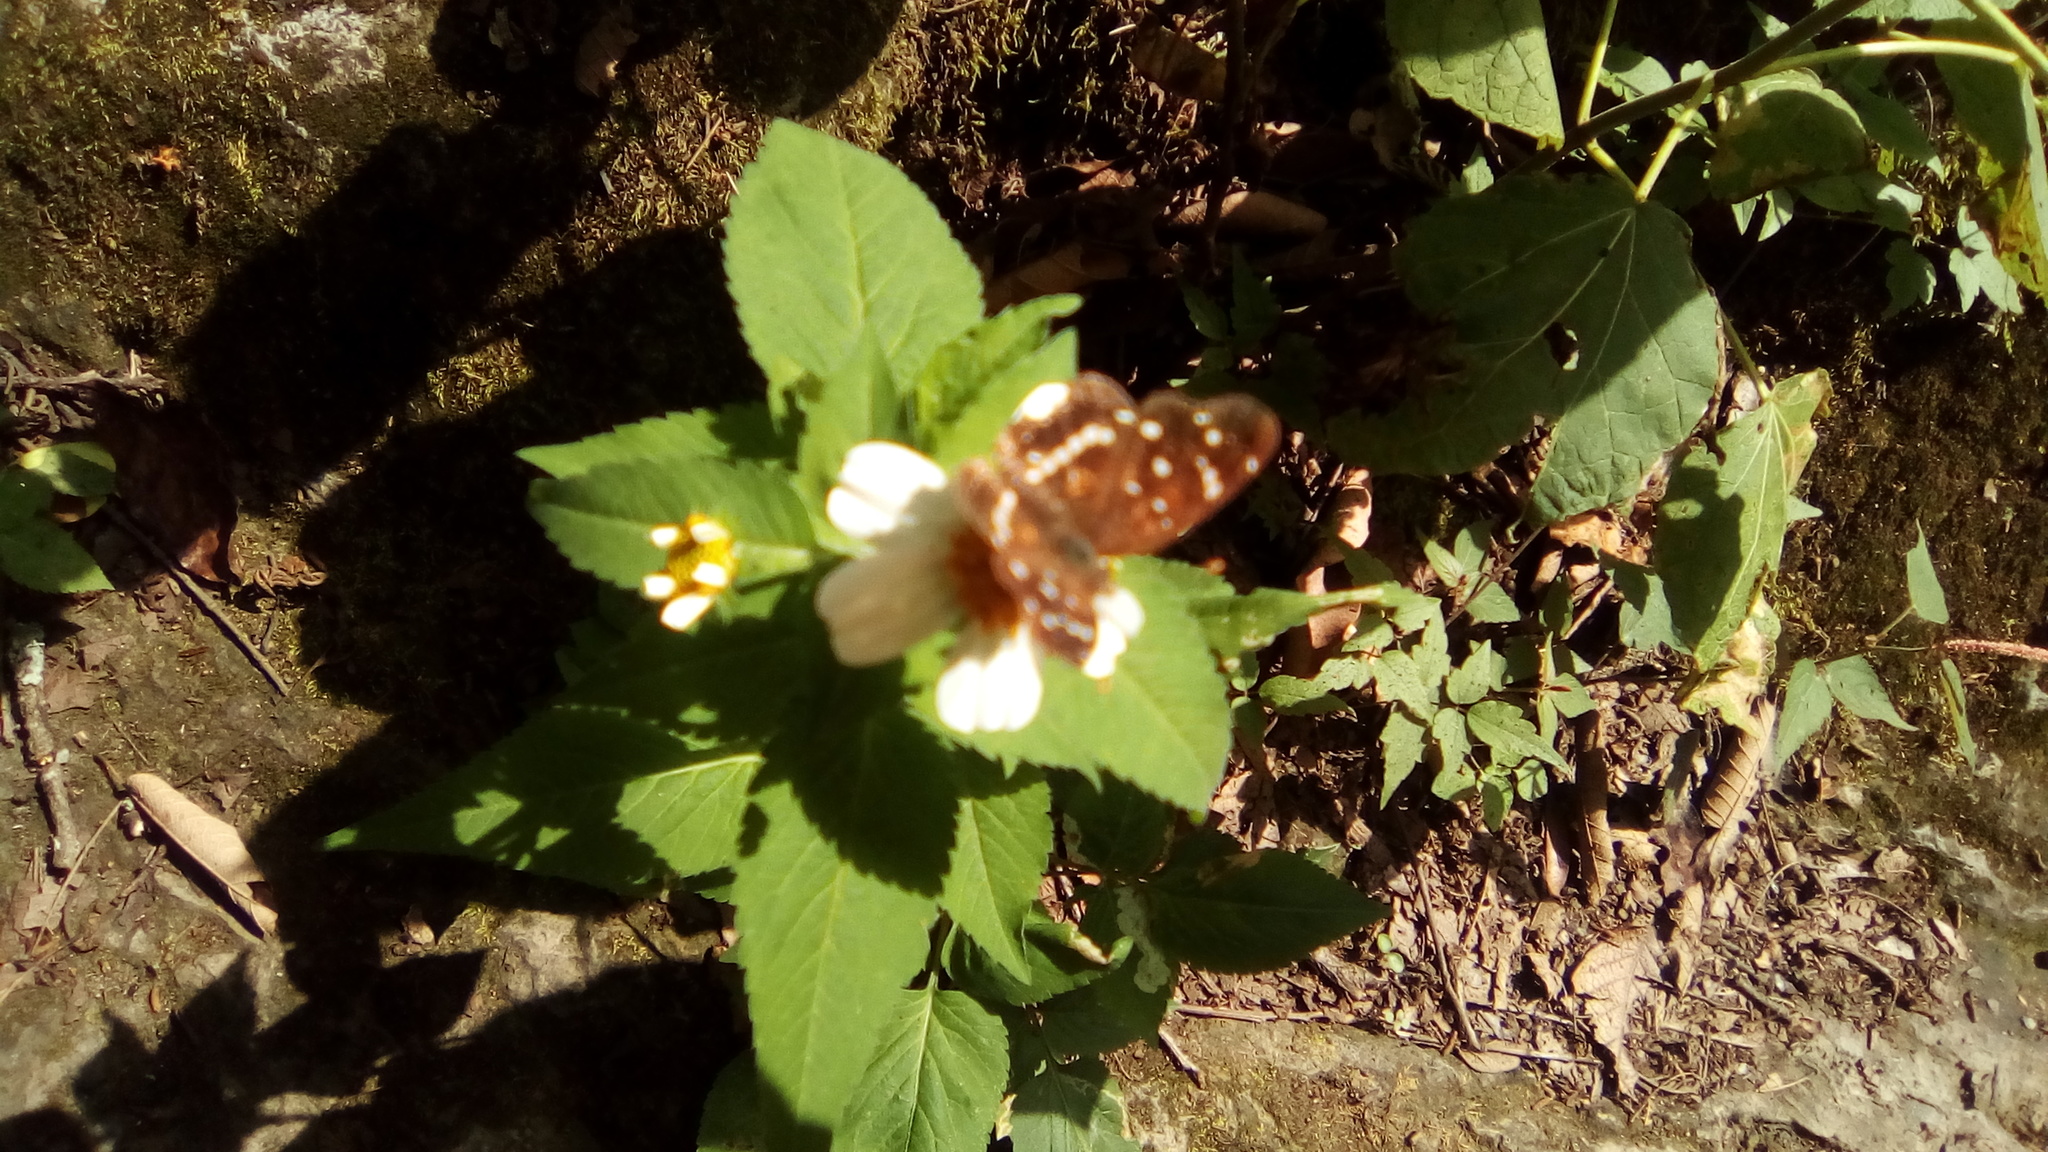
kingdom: Animalia
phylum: Arthropoda
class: Insecta
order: Lepidoptera
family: Nymphalidae
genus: Anthanassa
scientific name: Anthanassa texana
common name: Texan crescent
